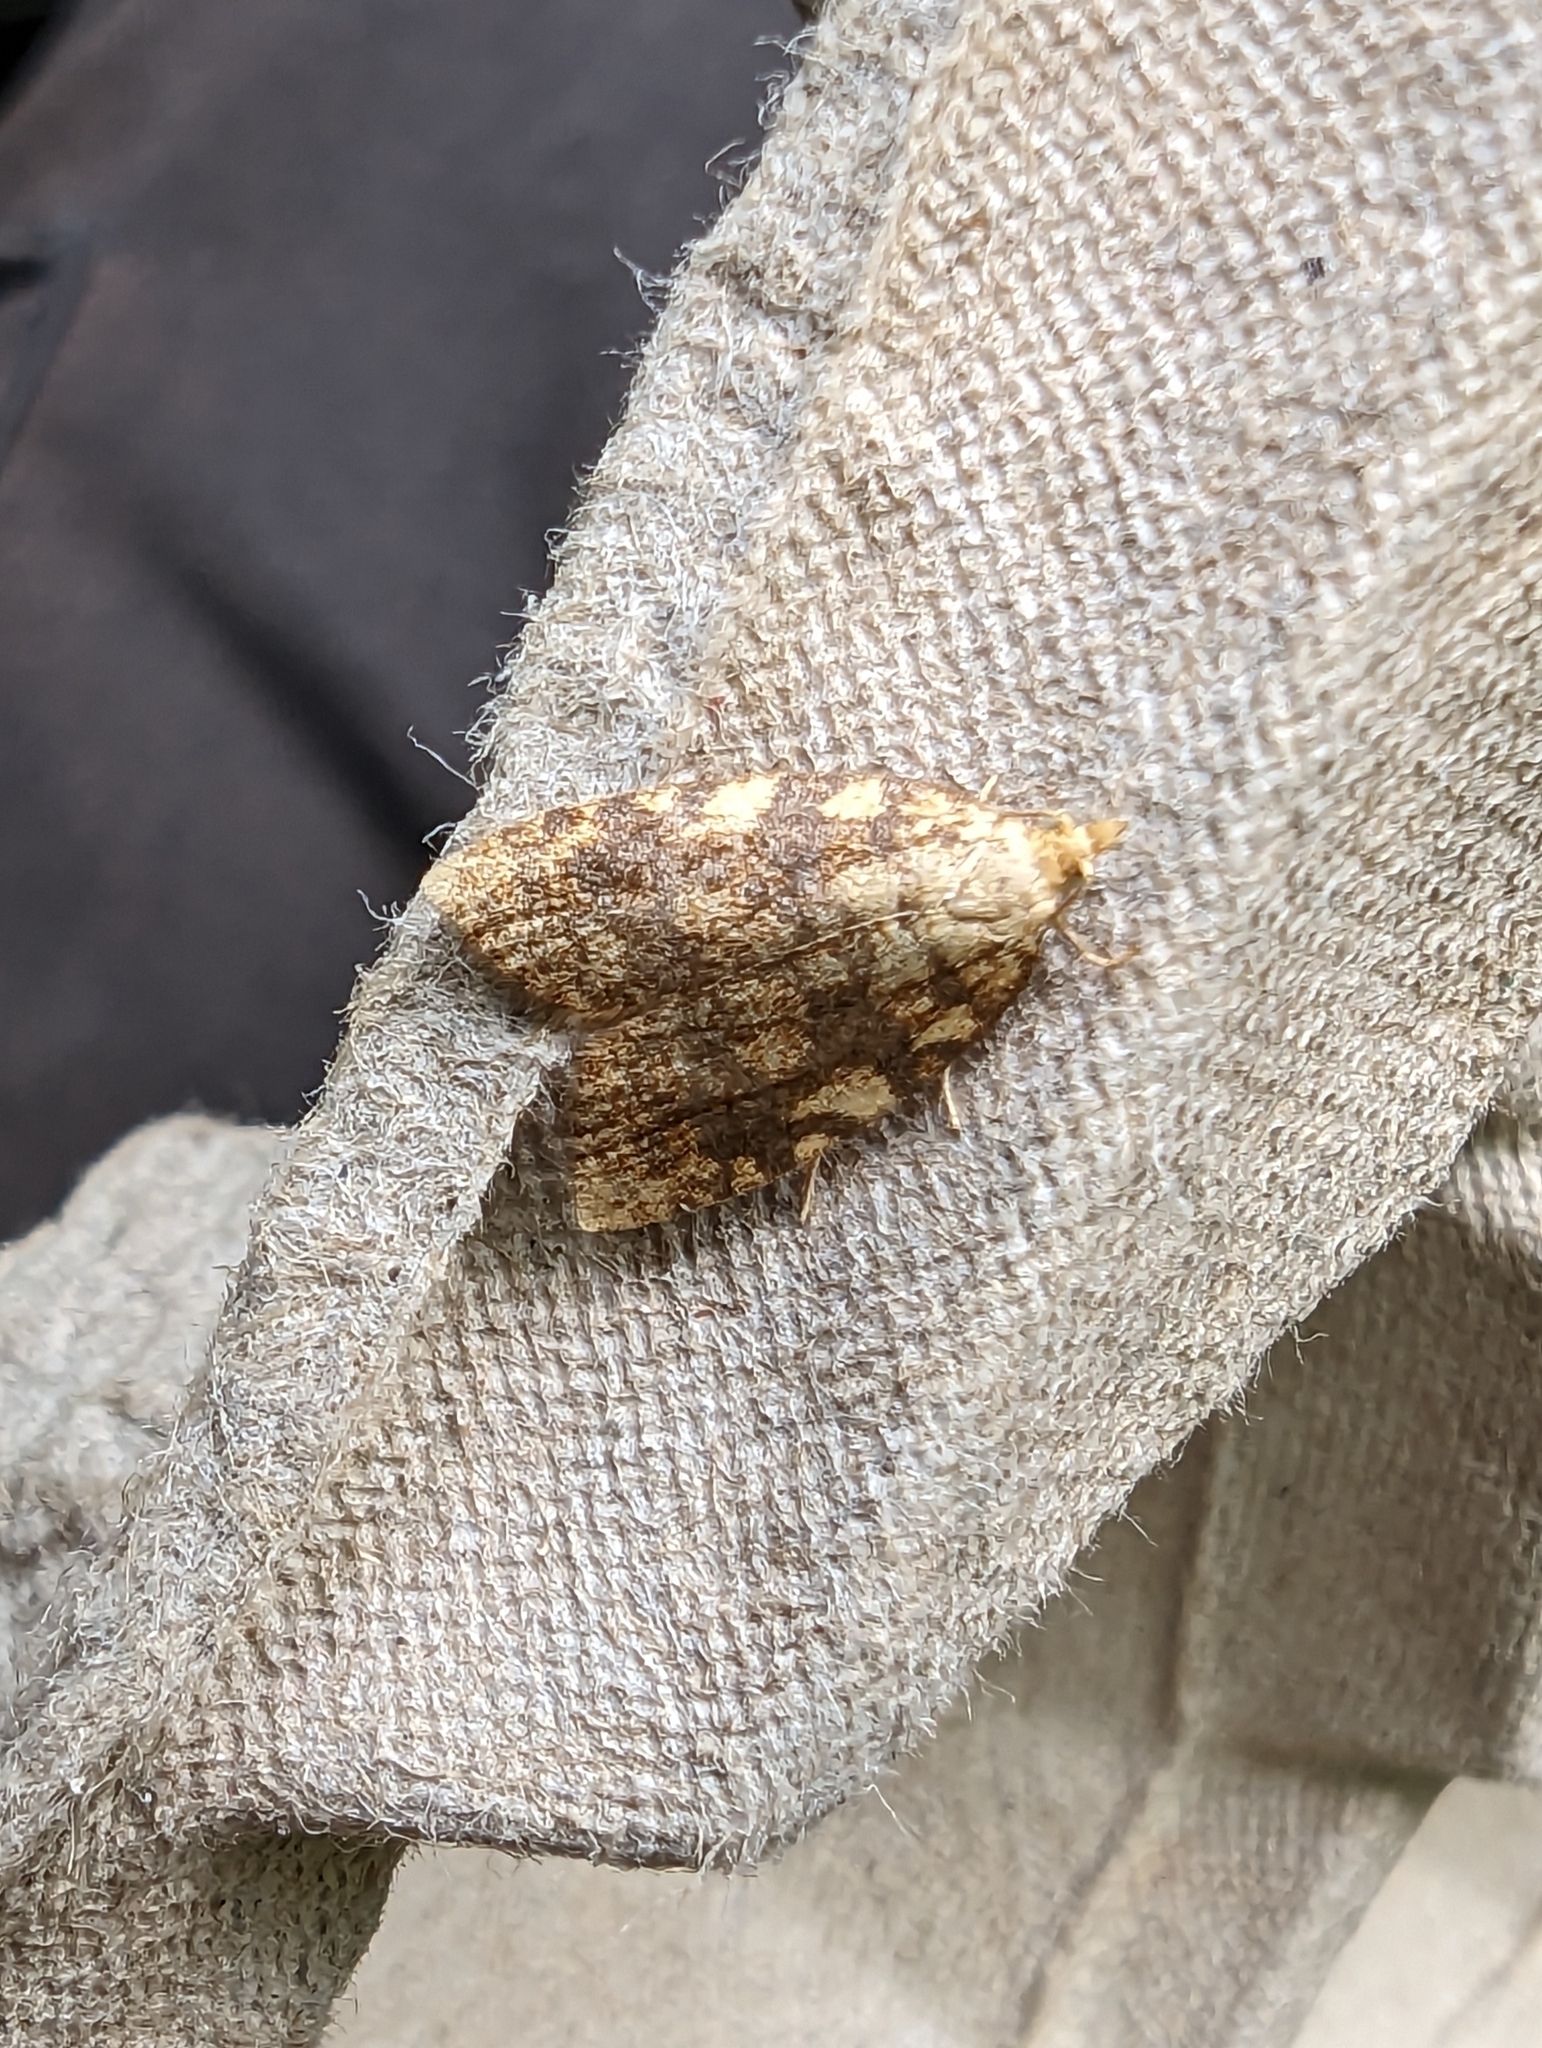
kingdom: Animalia
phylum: Arthropoda
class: Insecta
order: Lepidoptera
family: Tortricidae
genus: Aleimma
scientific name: Aleimma loeflingiana
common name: Yellow oak button
